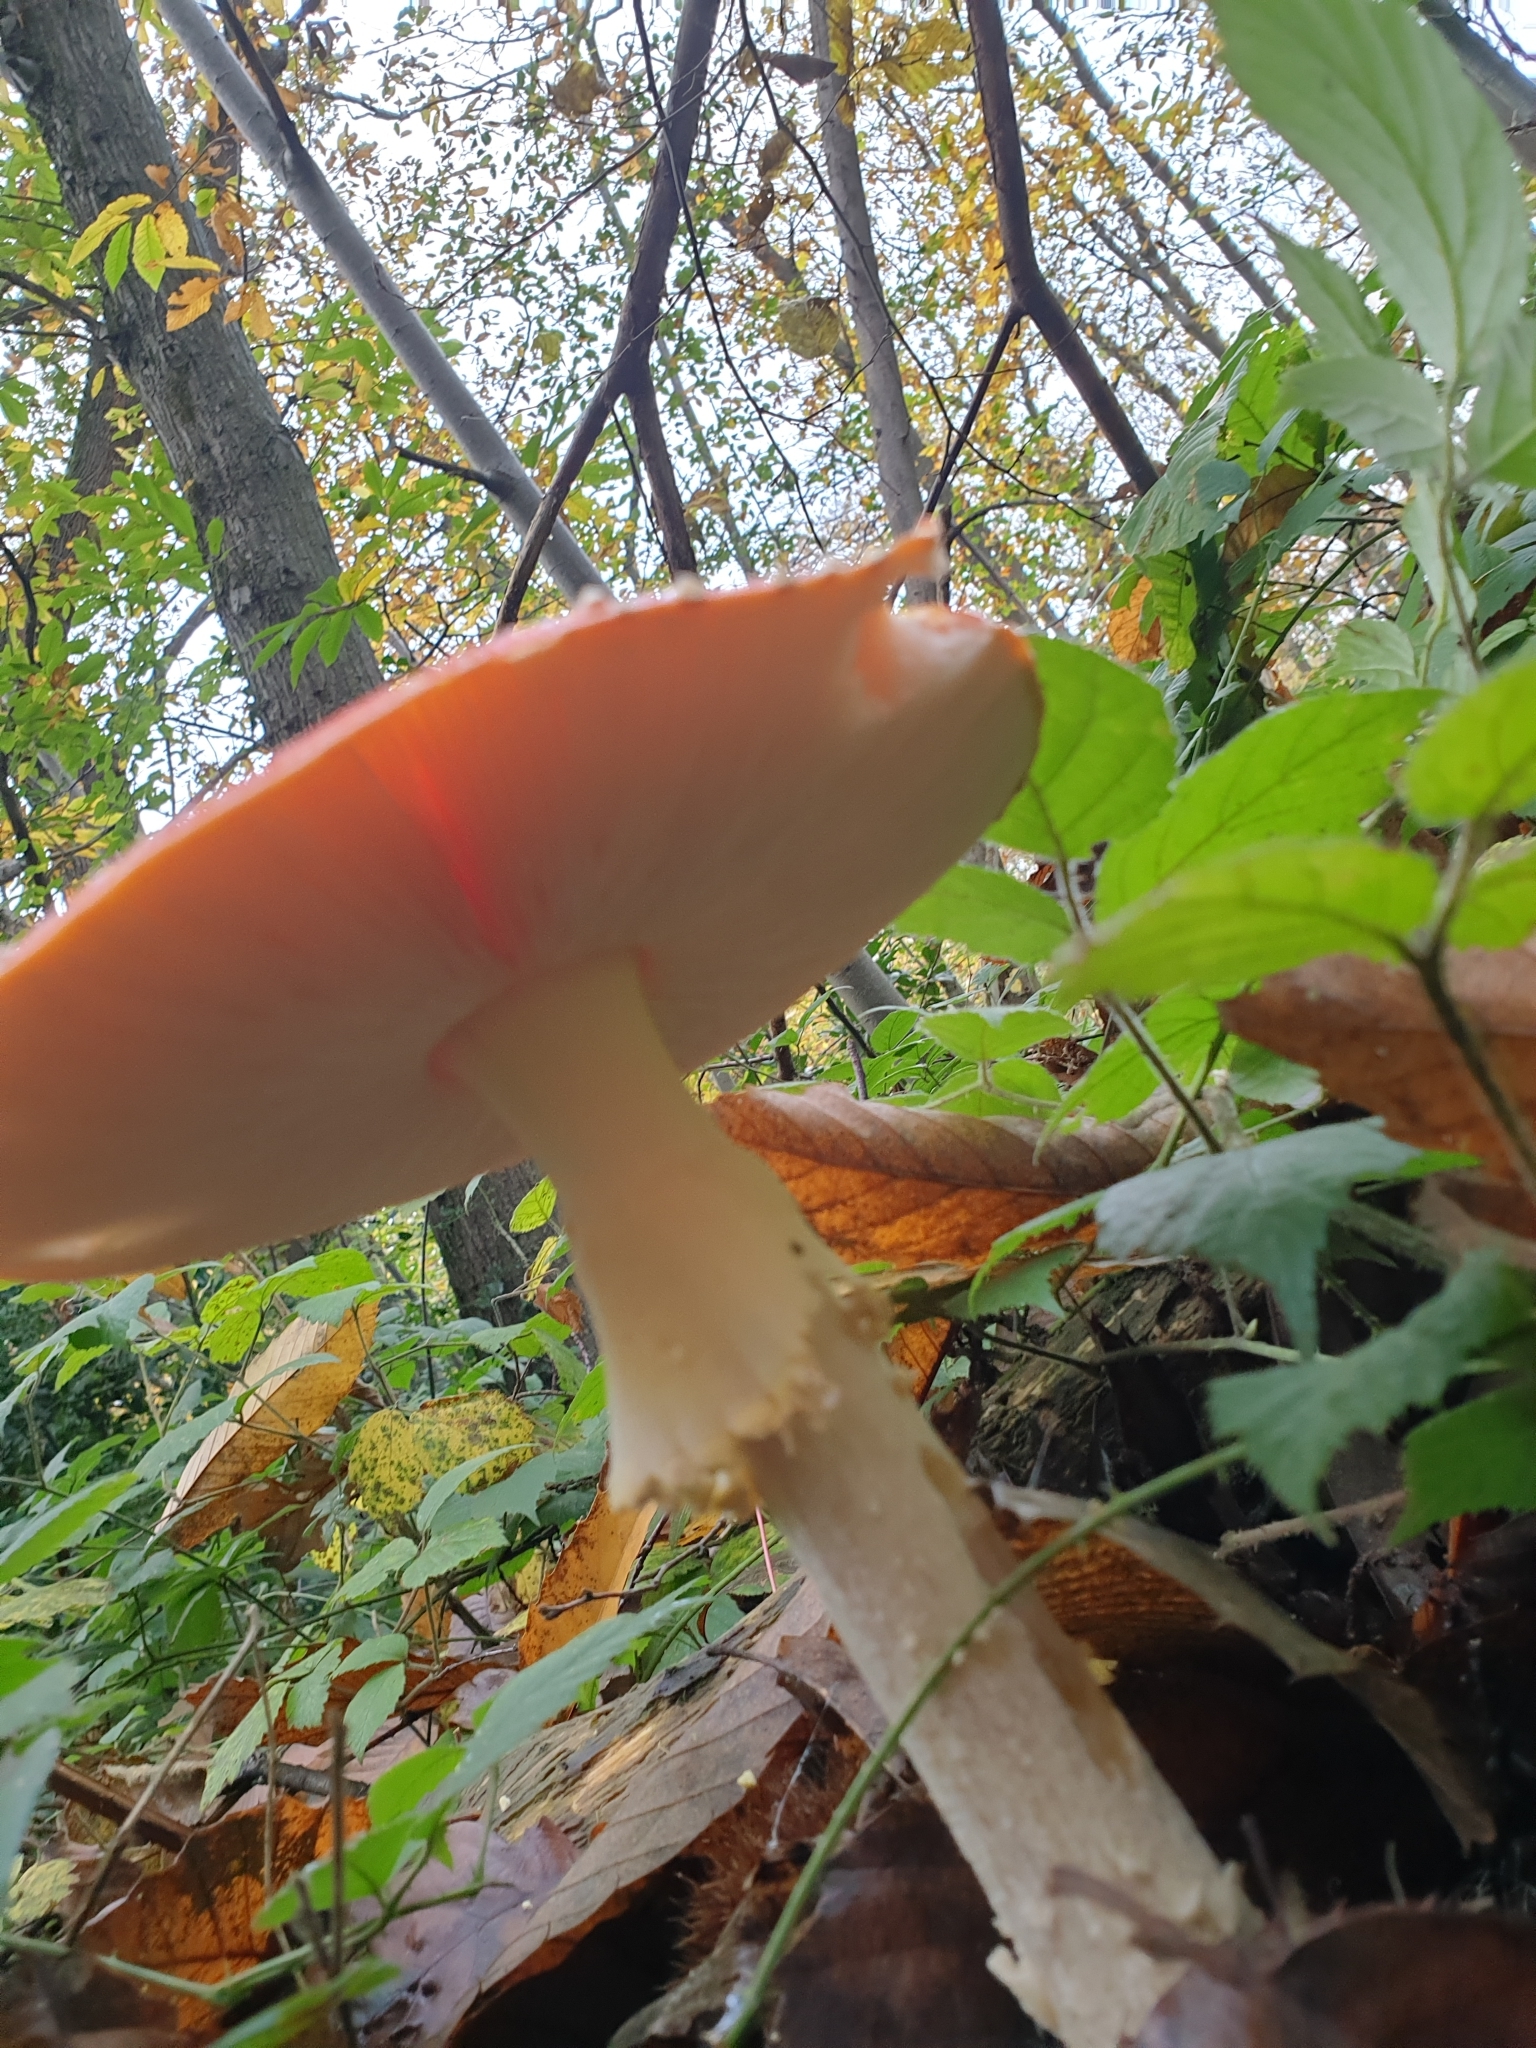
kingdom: Fungi
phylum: Basidiomycota
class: Agaricomycetes
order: Agaricales
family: Amanitaceae
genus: Amanita
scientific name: Amanita muscaria
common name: Fly agaric
